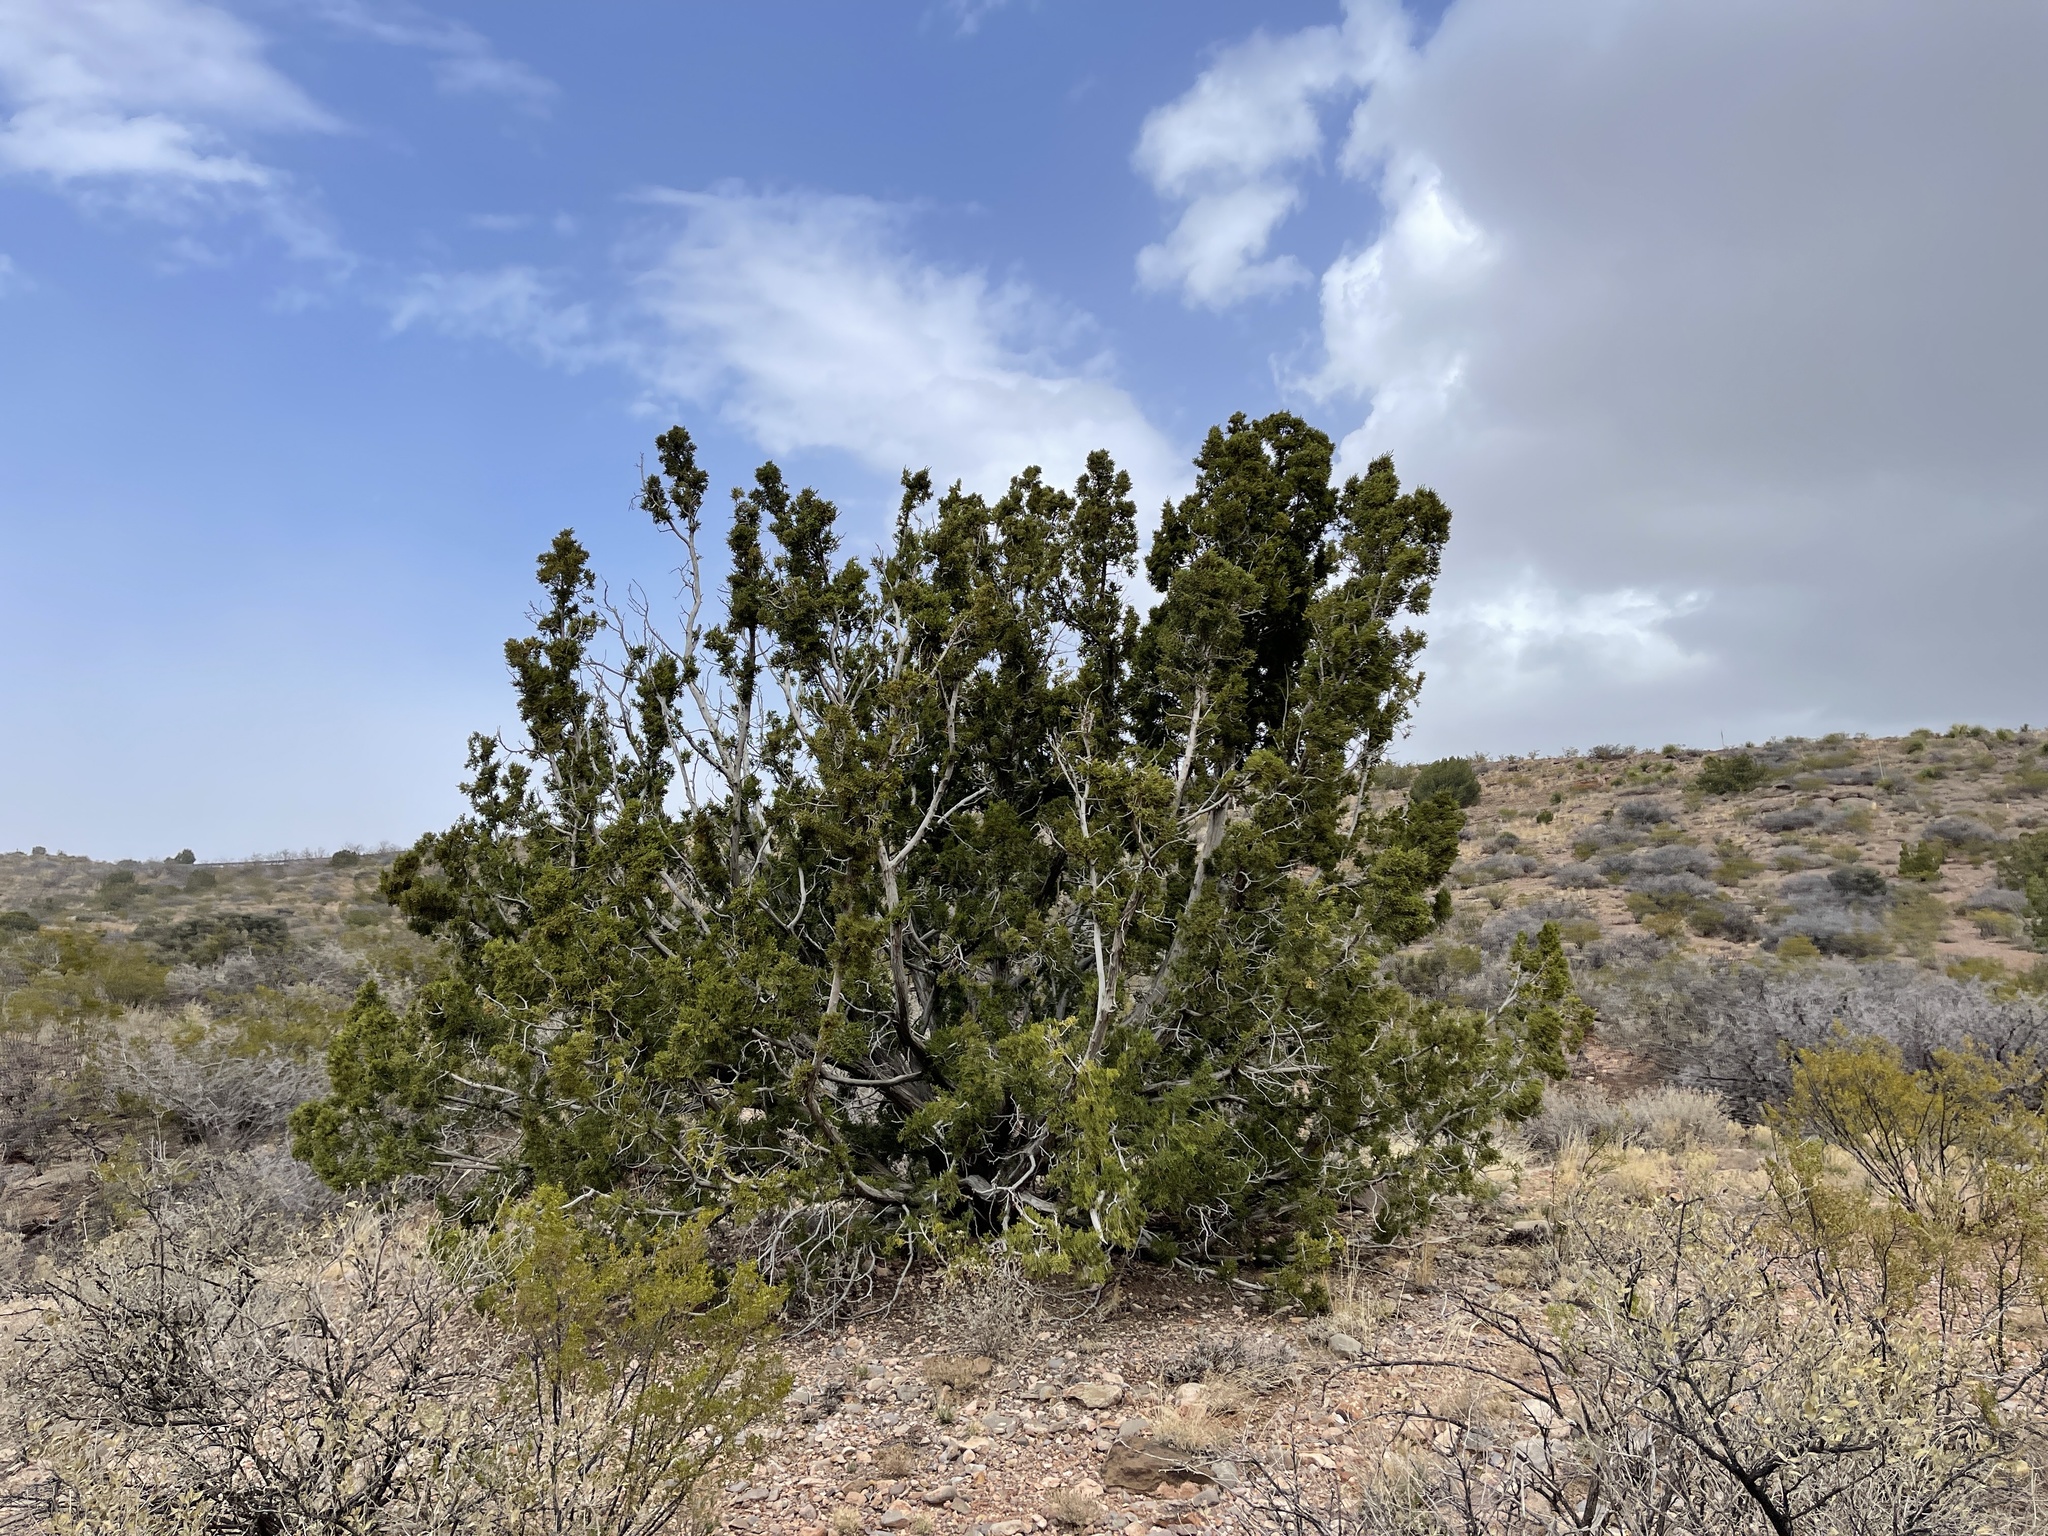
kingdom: Plantae
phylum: Tracheophyta
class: Pinopsida
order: Pinales
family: Cupressaceae
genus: Juniperus
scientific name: Juniperus monosperma
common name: One-seed juniper
